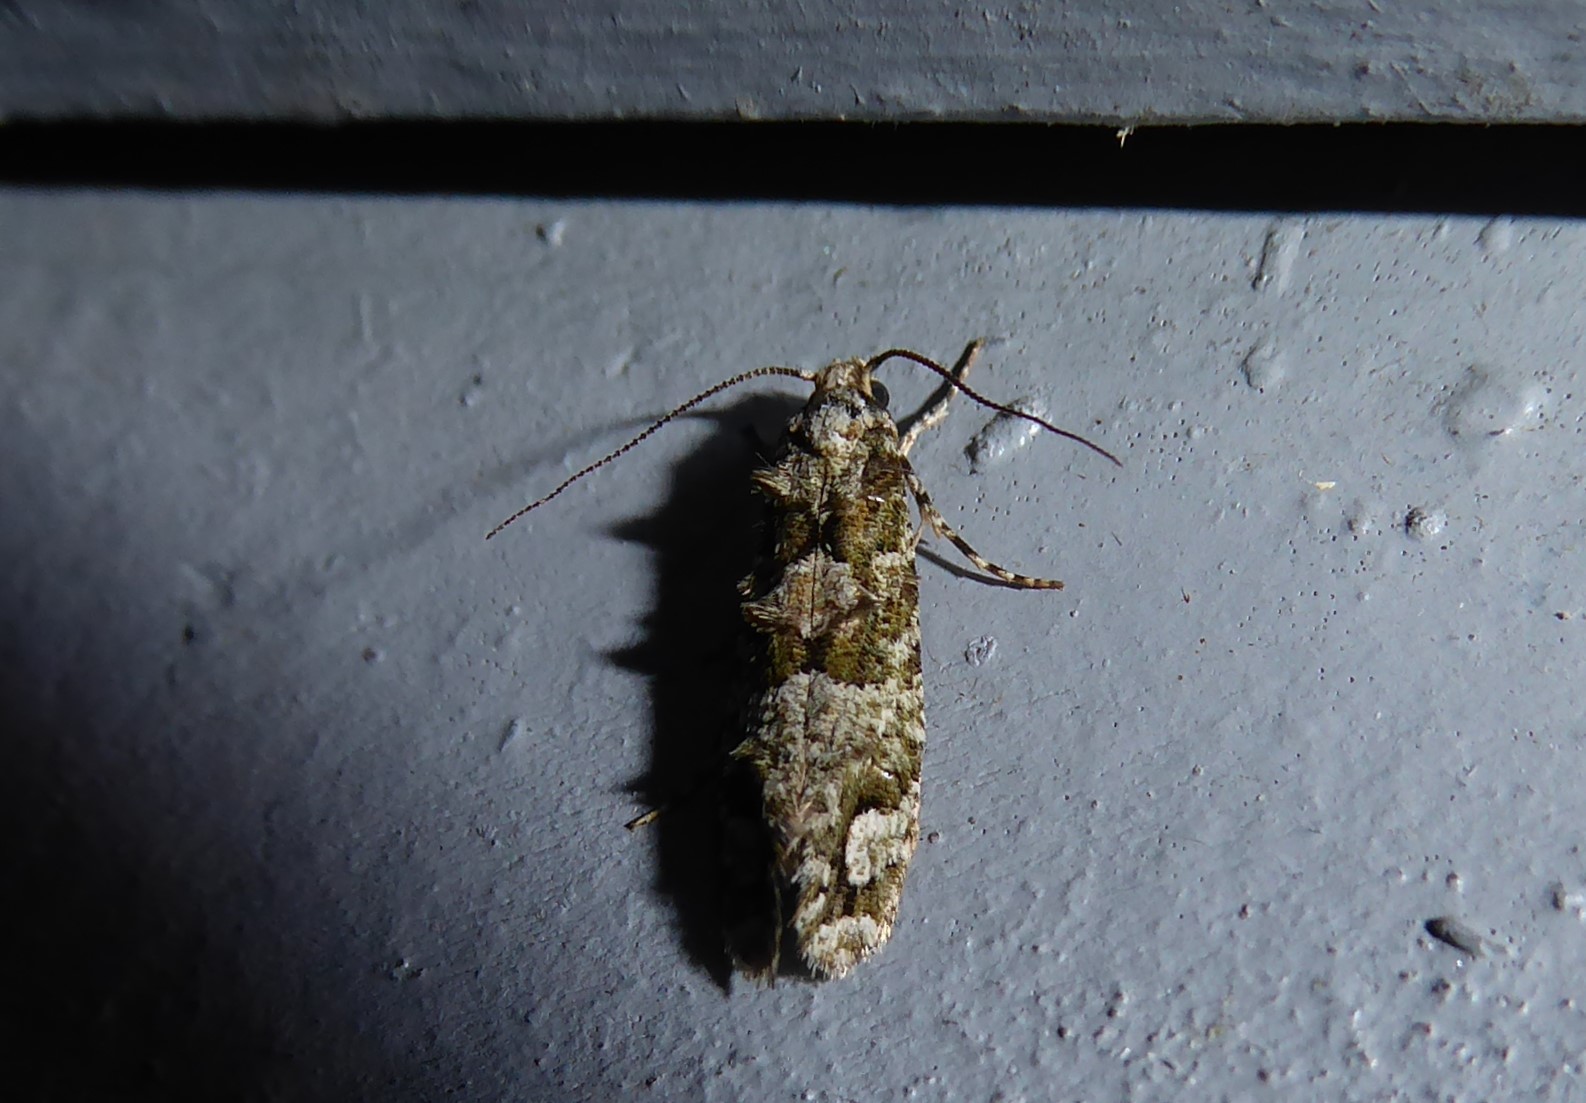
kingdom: Animalia
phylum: Arthropoda
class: Insecta
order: Lepidoptera
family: Tineidae
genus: Lysiphragma
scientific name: Lysiphragma howesii
